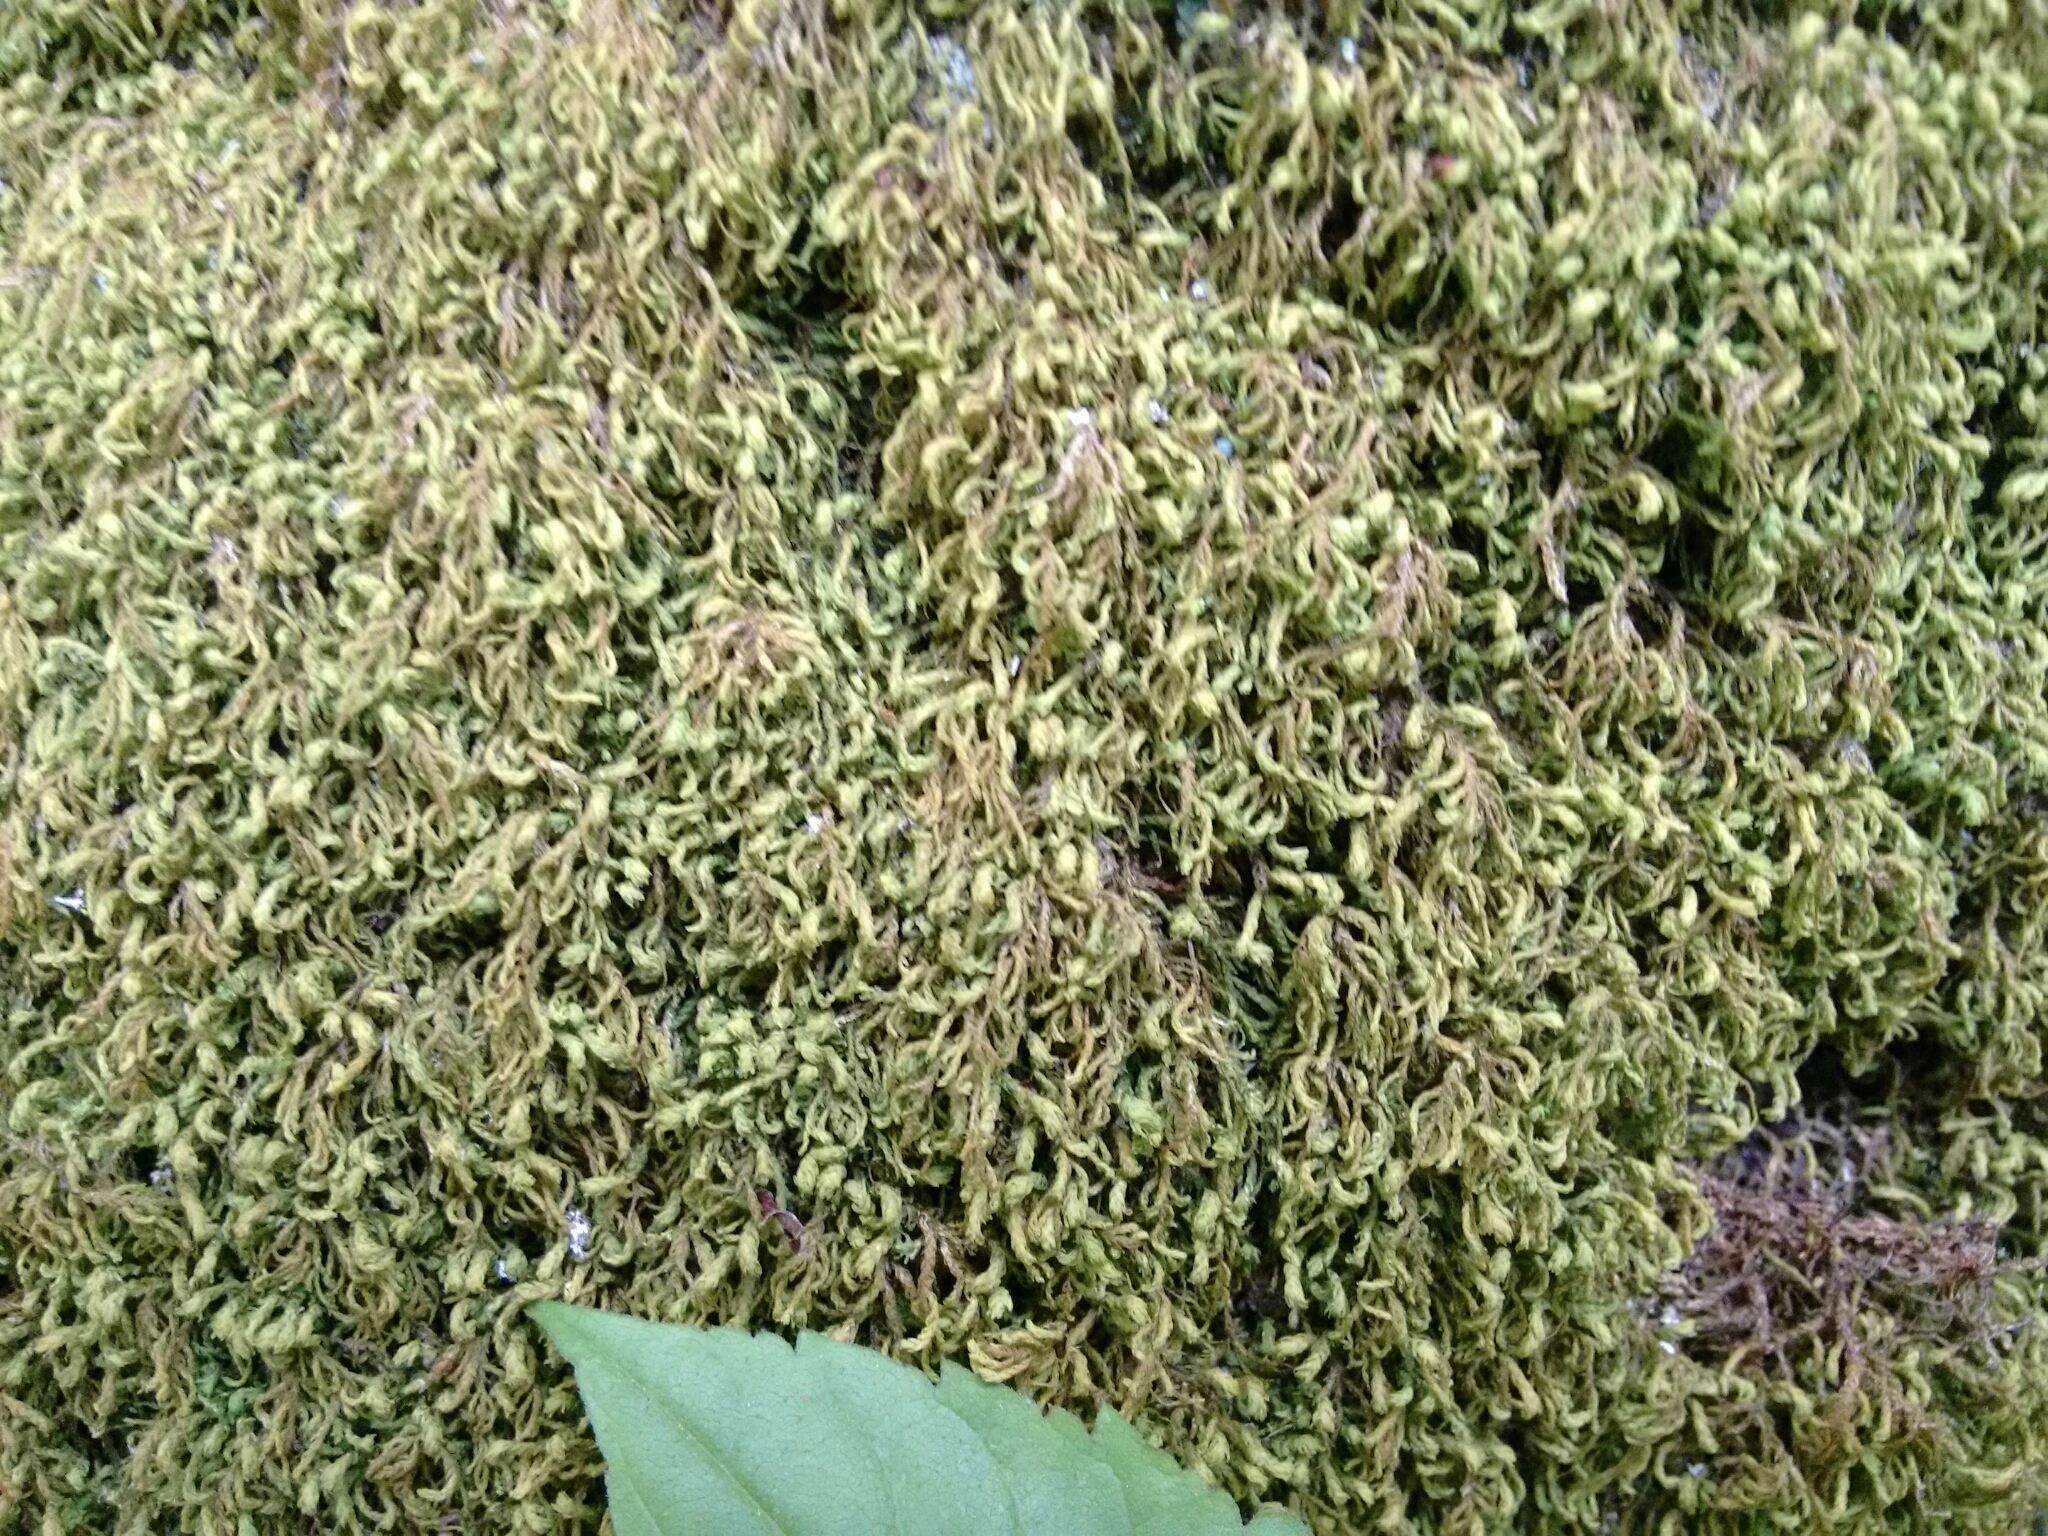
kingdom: Plantae
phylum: Bryophyta
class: Bryopsida
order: Hypnales
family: Neckeraceae
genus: Pseudanomodon
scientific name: Pseudanomodon attenuatus
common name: Tree-skirt moss
